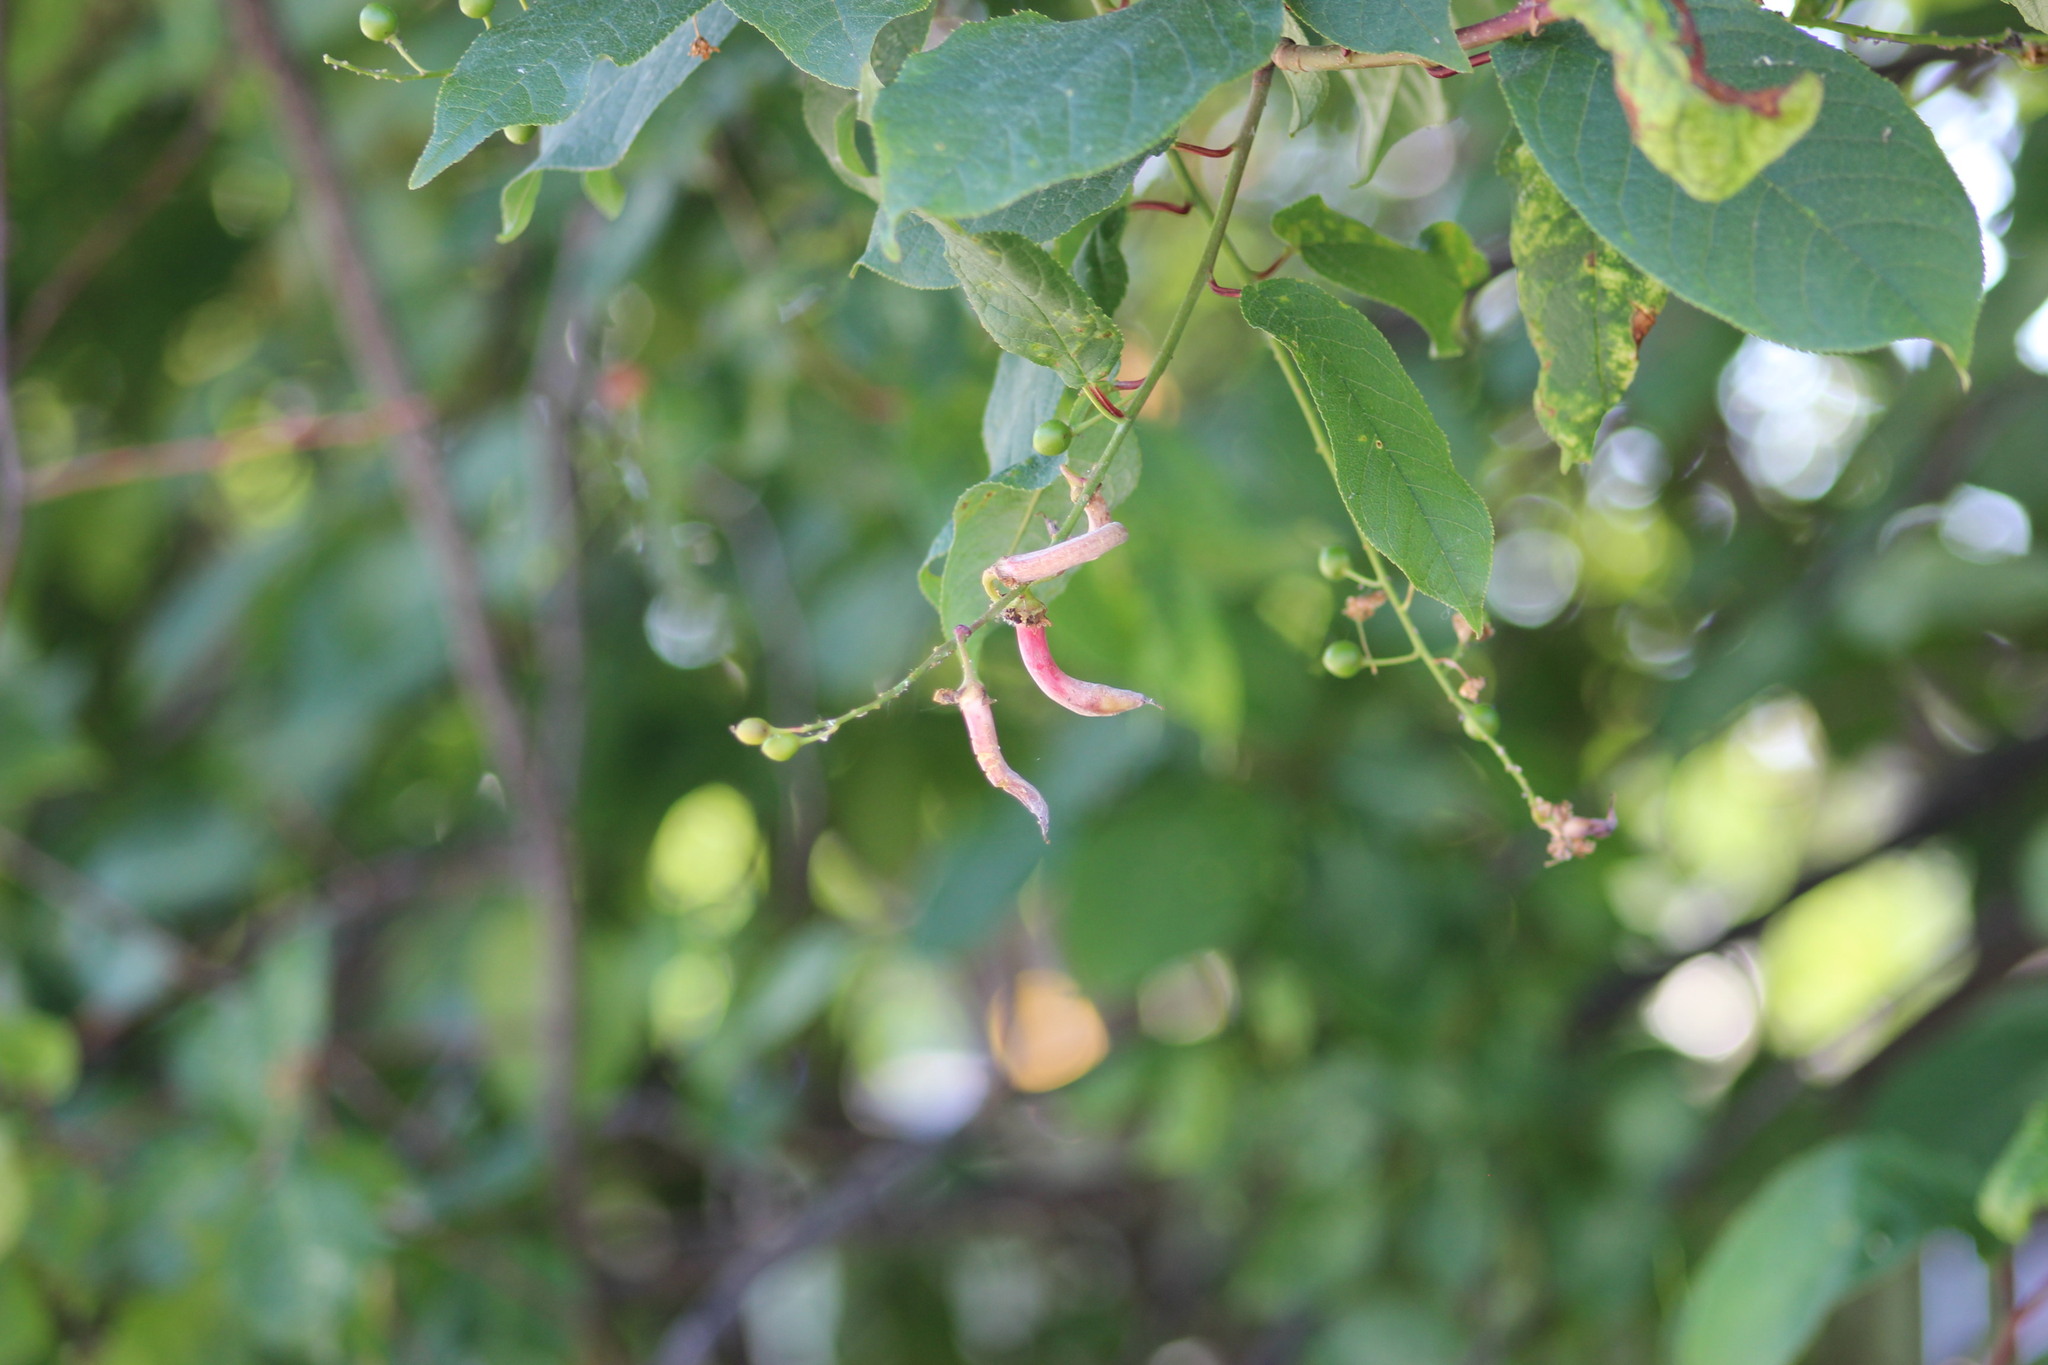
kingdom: Fungi
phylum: Ascomycota
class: Taphrinomycetes
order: Taphrinales
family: Taphrinaceae
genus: Taphrina
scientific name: Taphrina padi
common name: Bird cherry pocket
